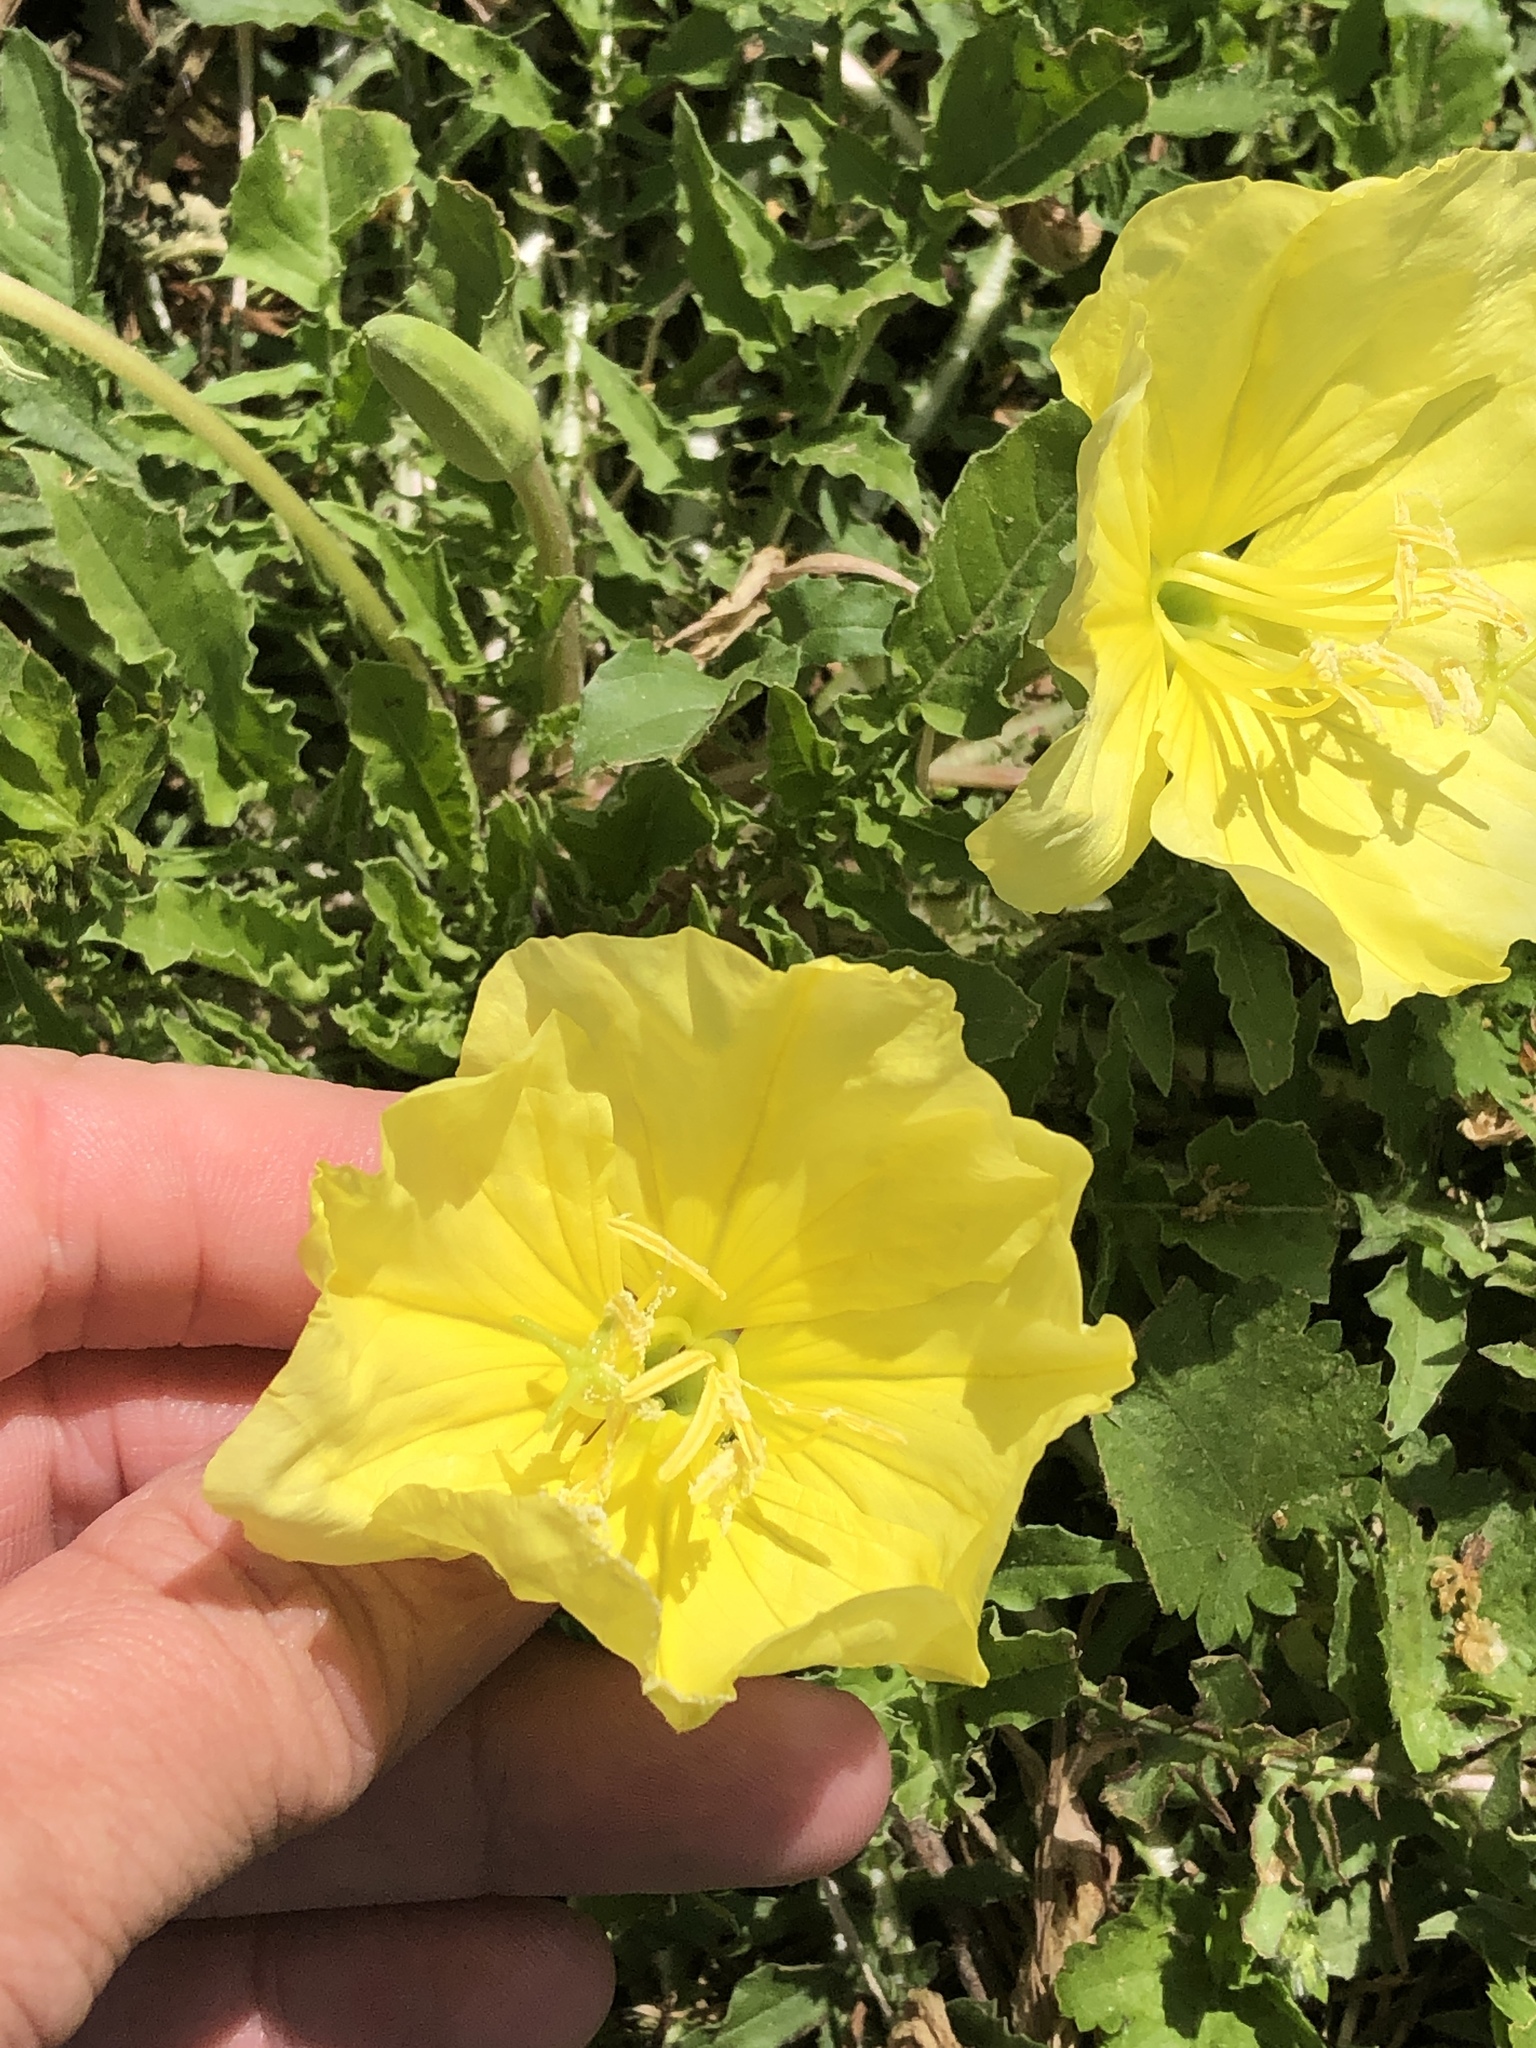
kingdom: Plantae
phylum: Tracheophyta
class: Magnoliopsida
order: Myrtales
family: Onagraceae
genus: Oenothera
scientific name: Oenothera triloba
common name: Sessile evening-primrose
